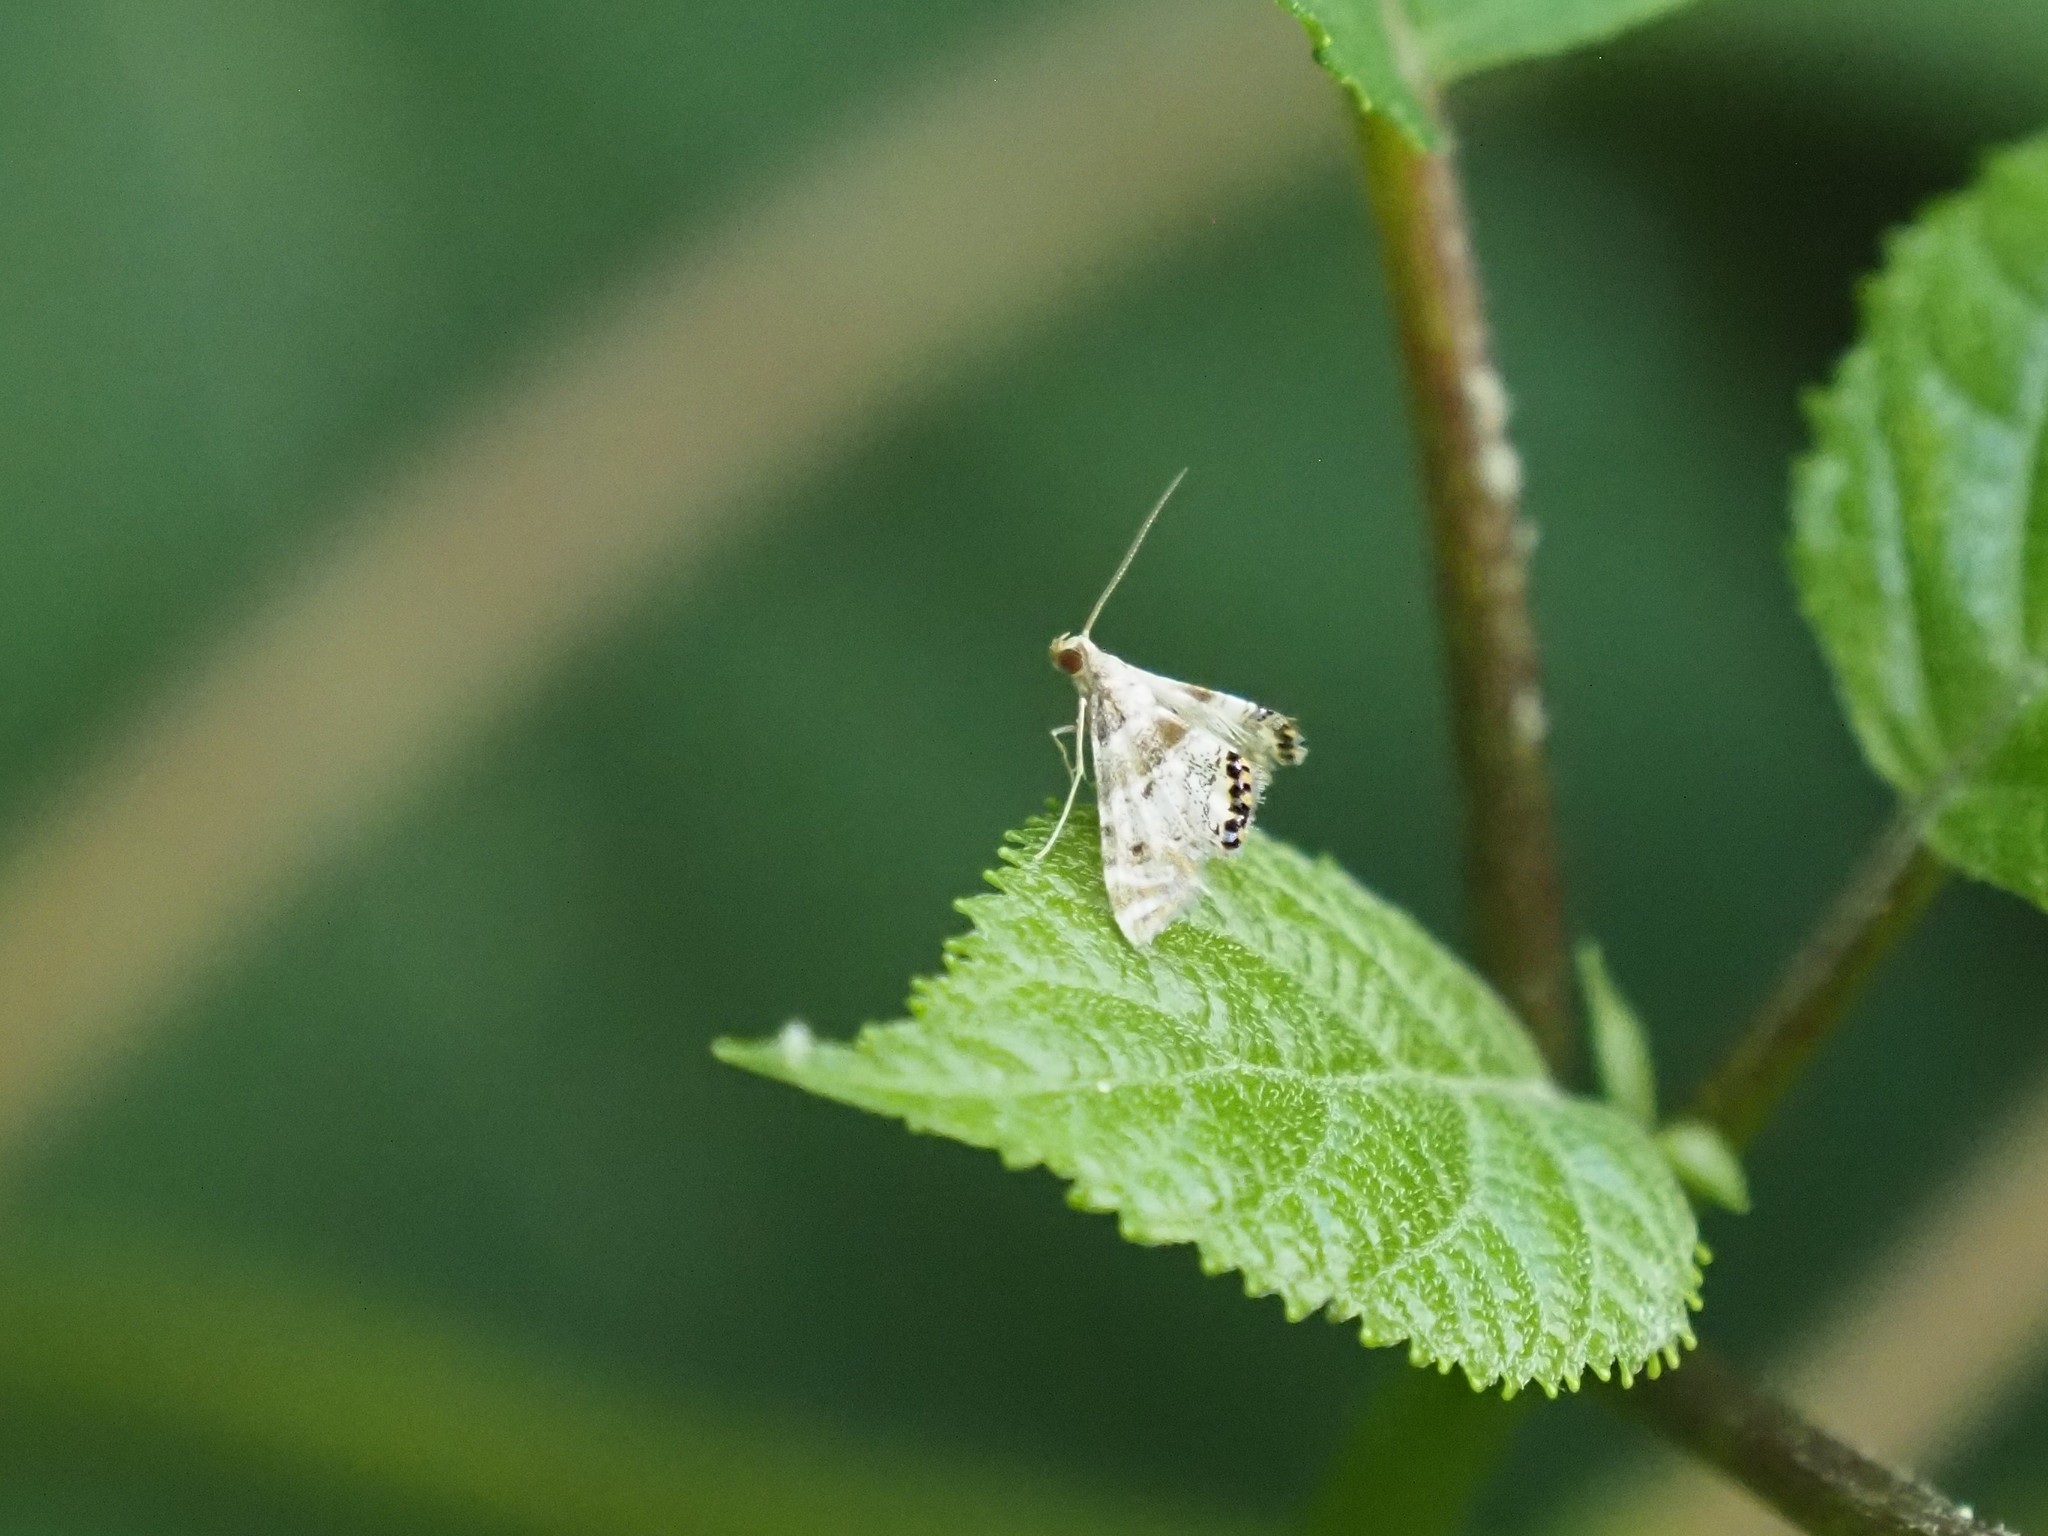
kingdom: Animalia
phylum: Arthropoda
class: Insecta
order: Lepidoptera
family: Crambidae
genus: Petrophila
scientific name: Petrophila fulicalis
